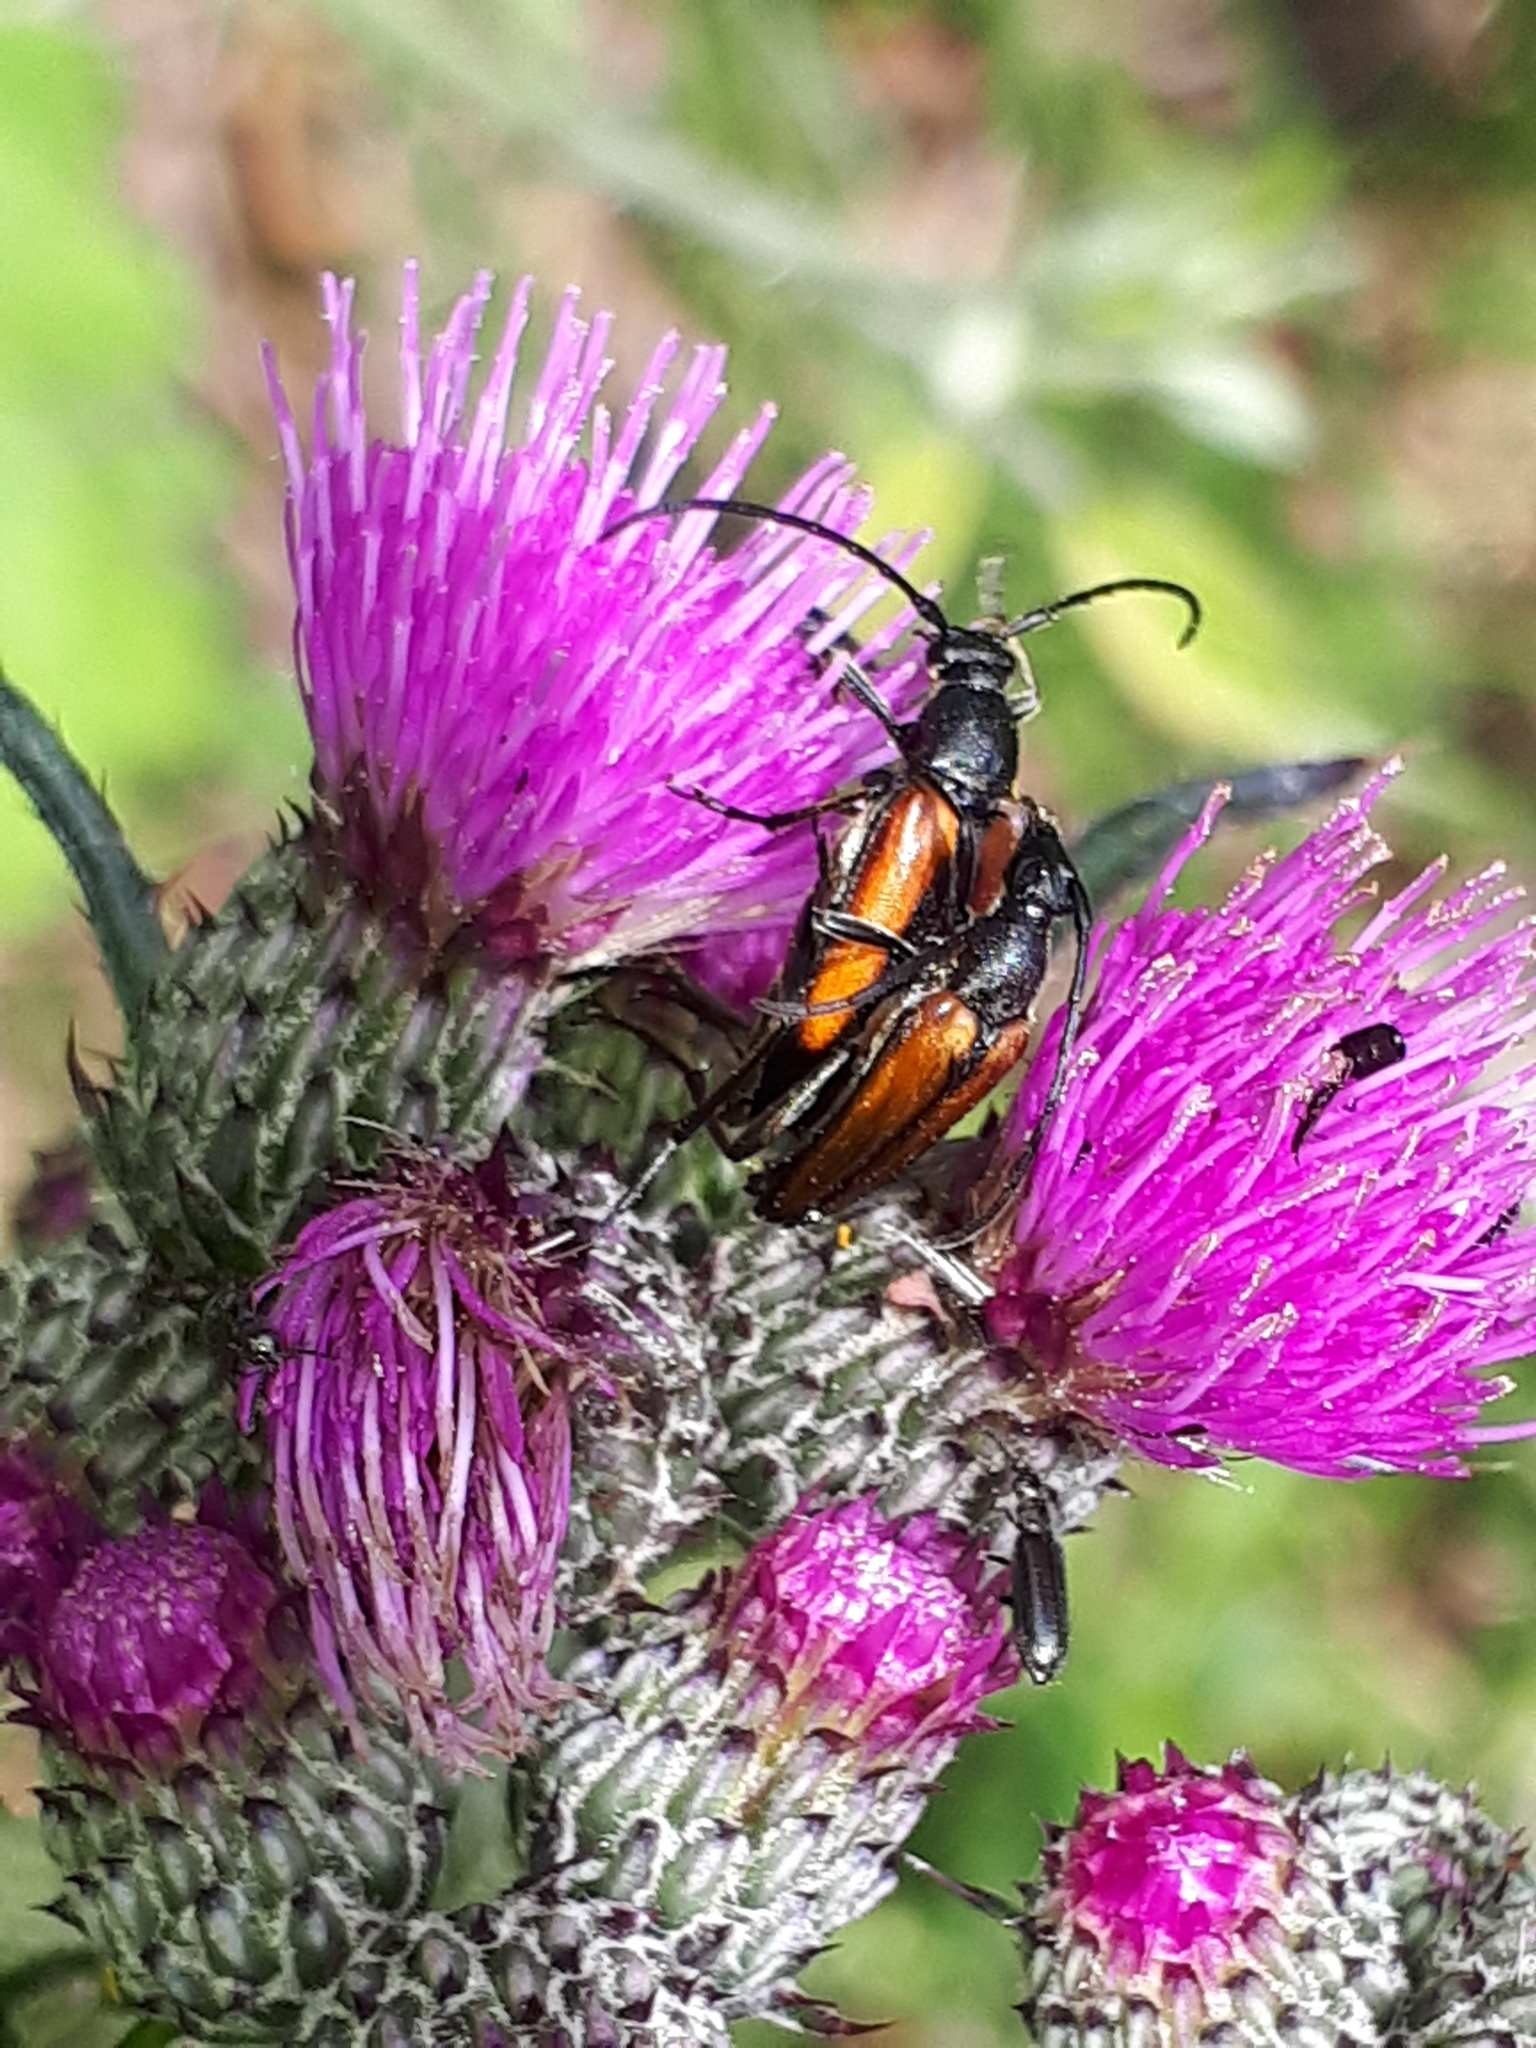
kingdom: Animalia
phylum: Arthropoda
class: Insecta
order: Coleoptera
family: Cerambycidae
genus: Stenurella
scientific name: Stenurella melanura
